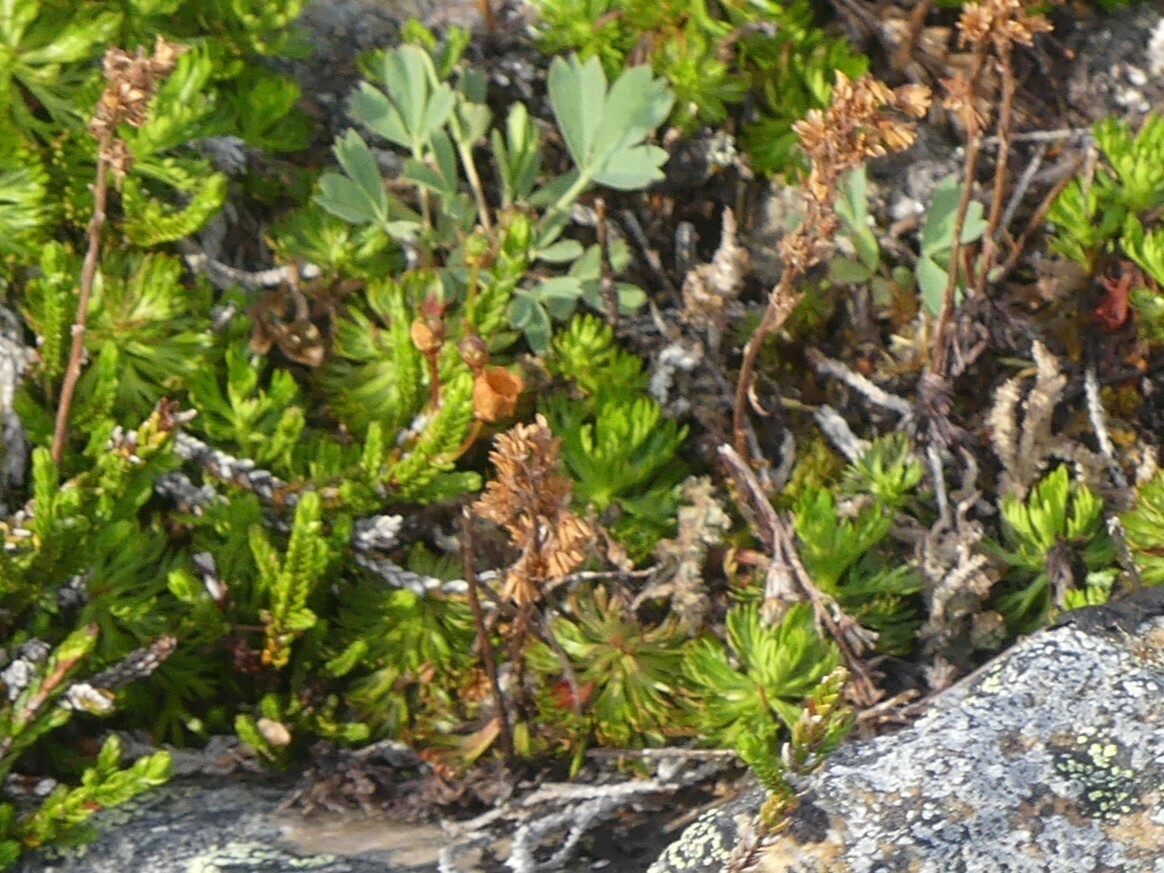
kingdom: Plantae
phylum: Tracheophyta
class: Magnoliopsida
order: Rosales
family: Rosaceae
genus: Sibbaldia
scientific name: Sibbaldia procumbens
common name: Creeping sibbaldia
